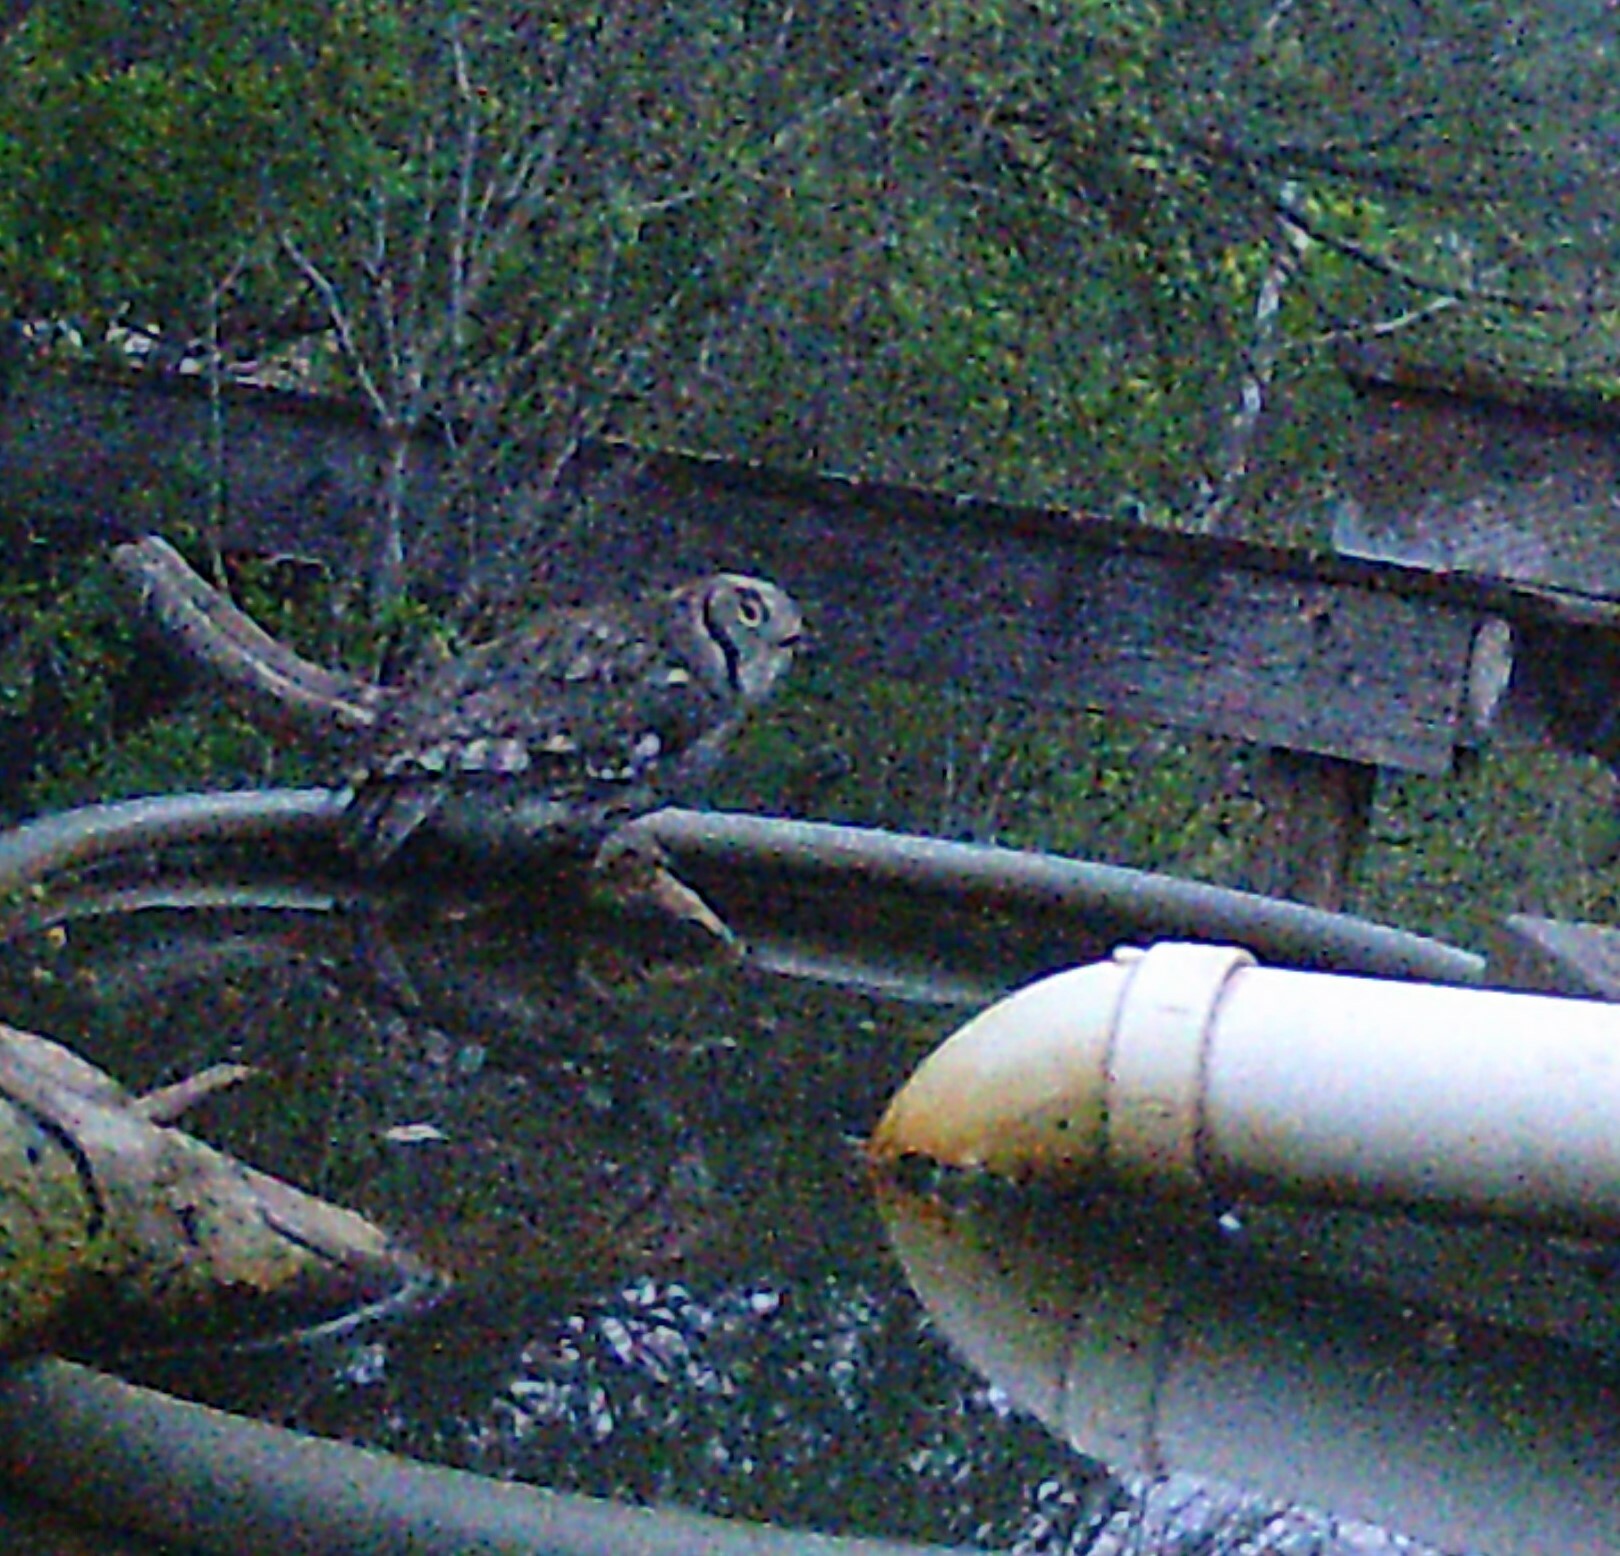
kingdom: Animalia
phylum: Chordata
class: Aves
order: Strigiformes
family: Strigidae
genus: Megascops
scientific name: Megascops asio
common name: Eastern screech-owl
